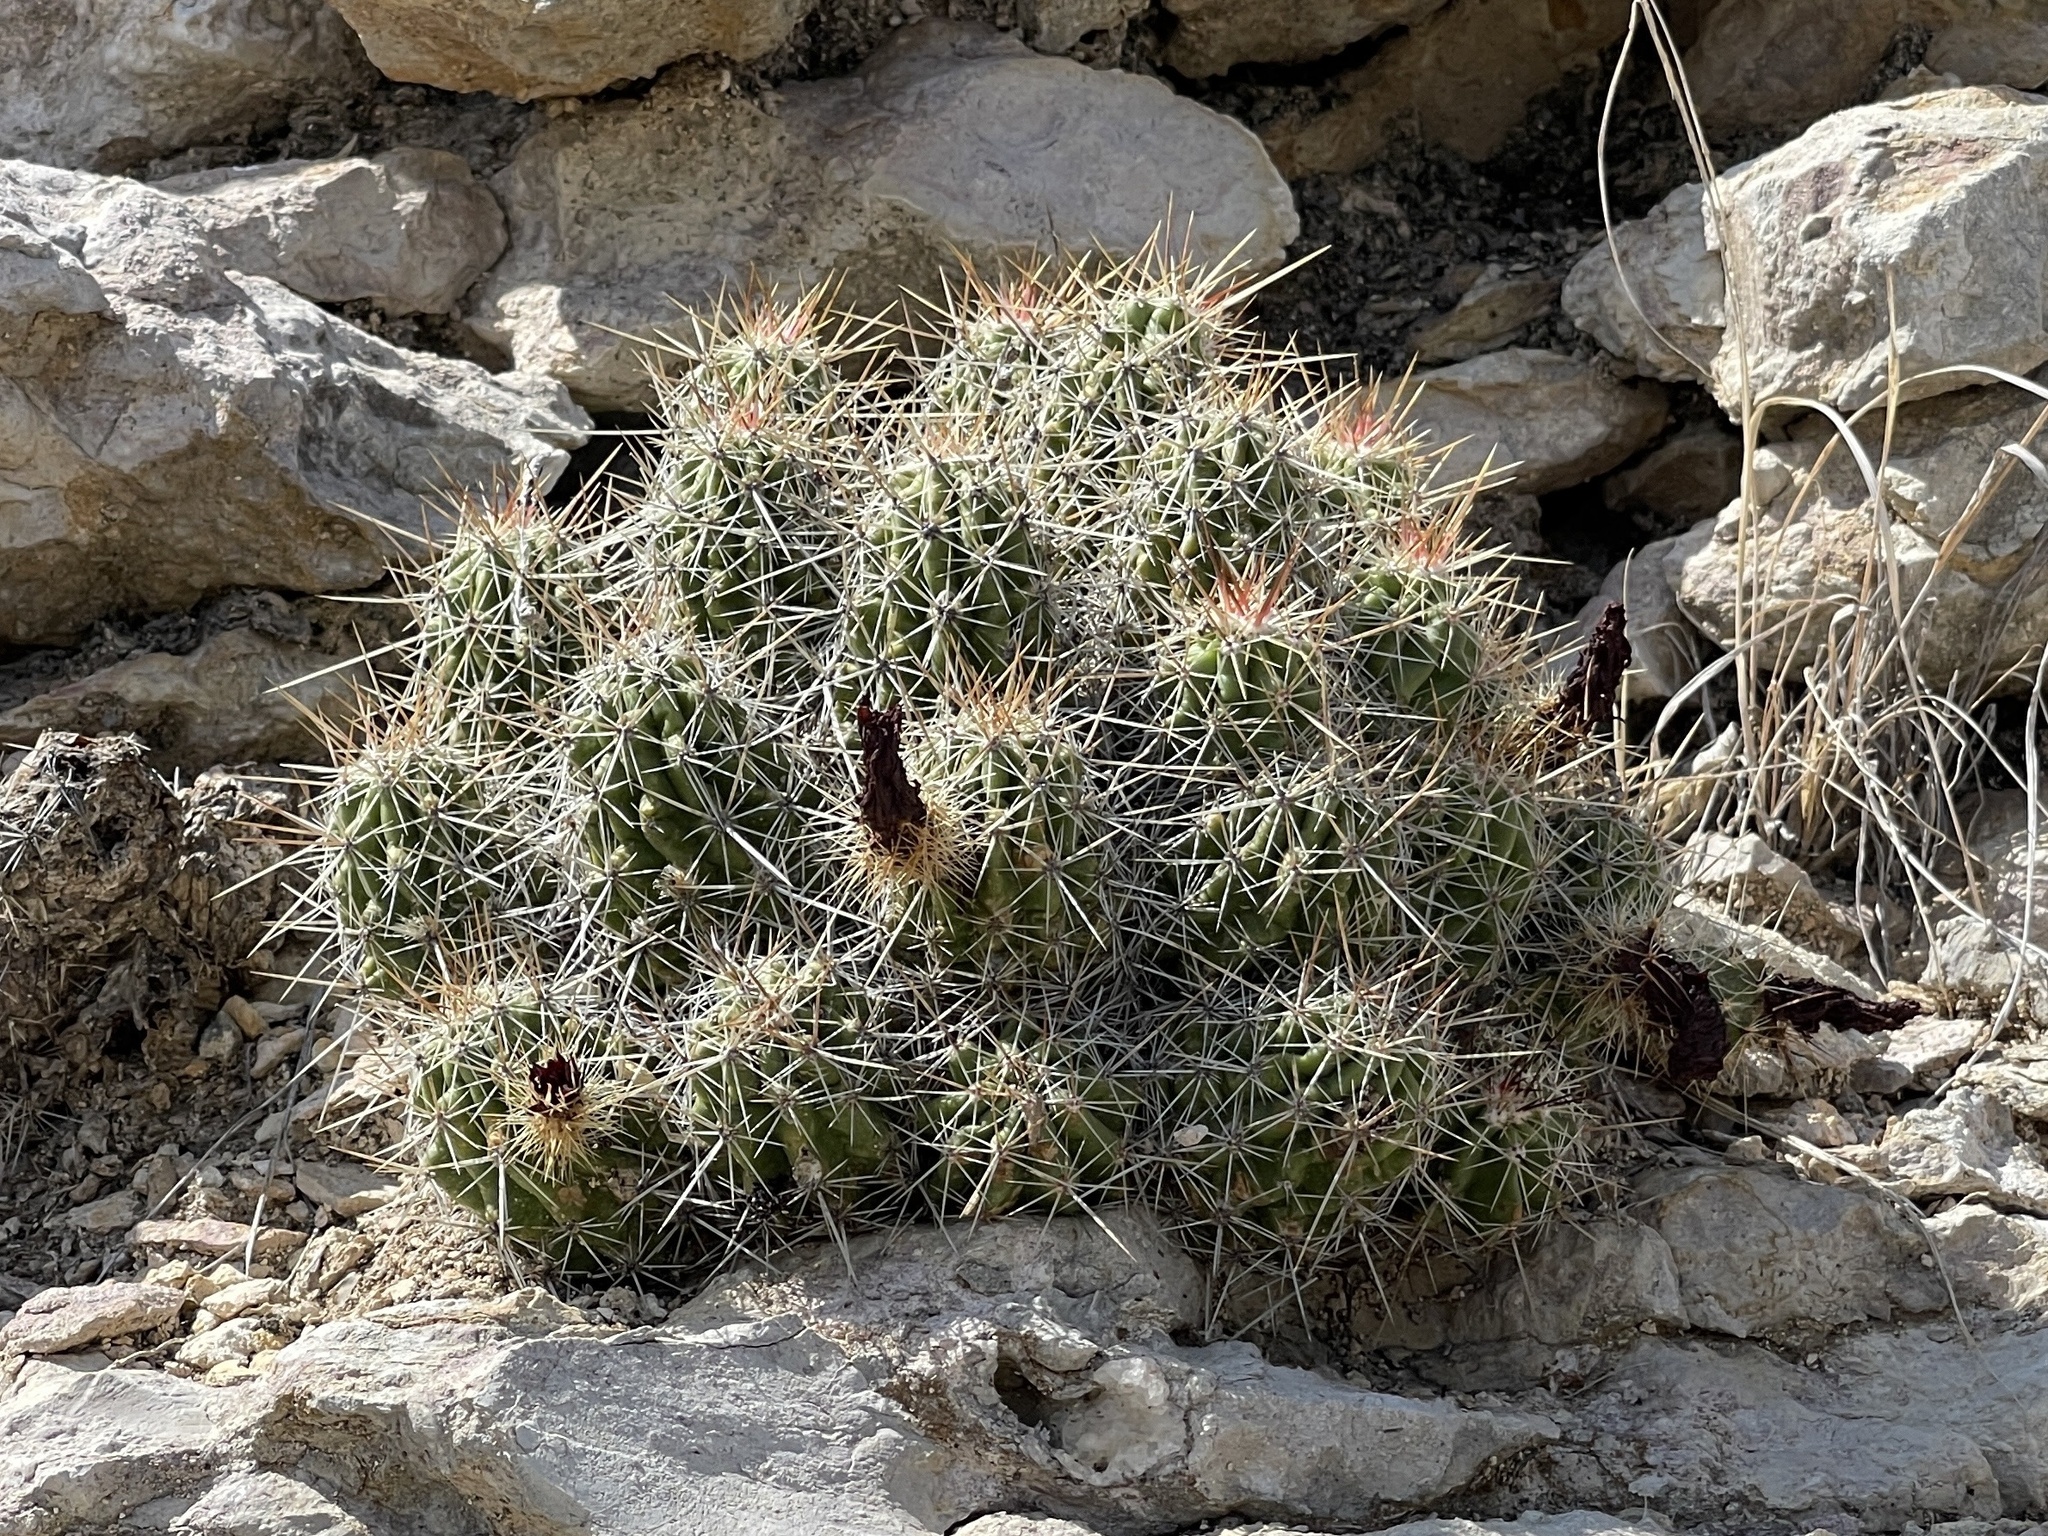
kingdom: Plantae
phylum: Tracheophyta
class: Magnoliopsida
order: Caryophyllales
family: Cactaceae
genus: Echinocereus
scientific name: Echinocereus enneacanthus
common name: Pitaya
